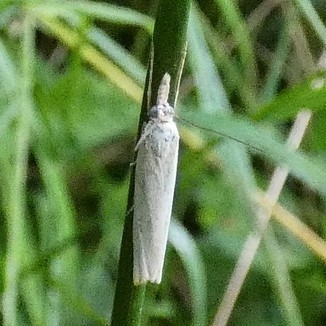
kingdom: Animalia
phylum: Arthropoda
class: Insecta
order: Lepidoptera
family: Crambidae
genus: Crambus
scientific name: Crambus perlellus
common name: Yellow satin veneer
